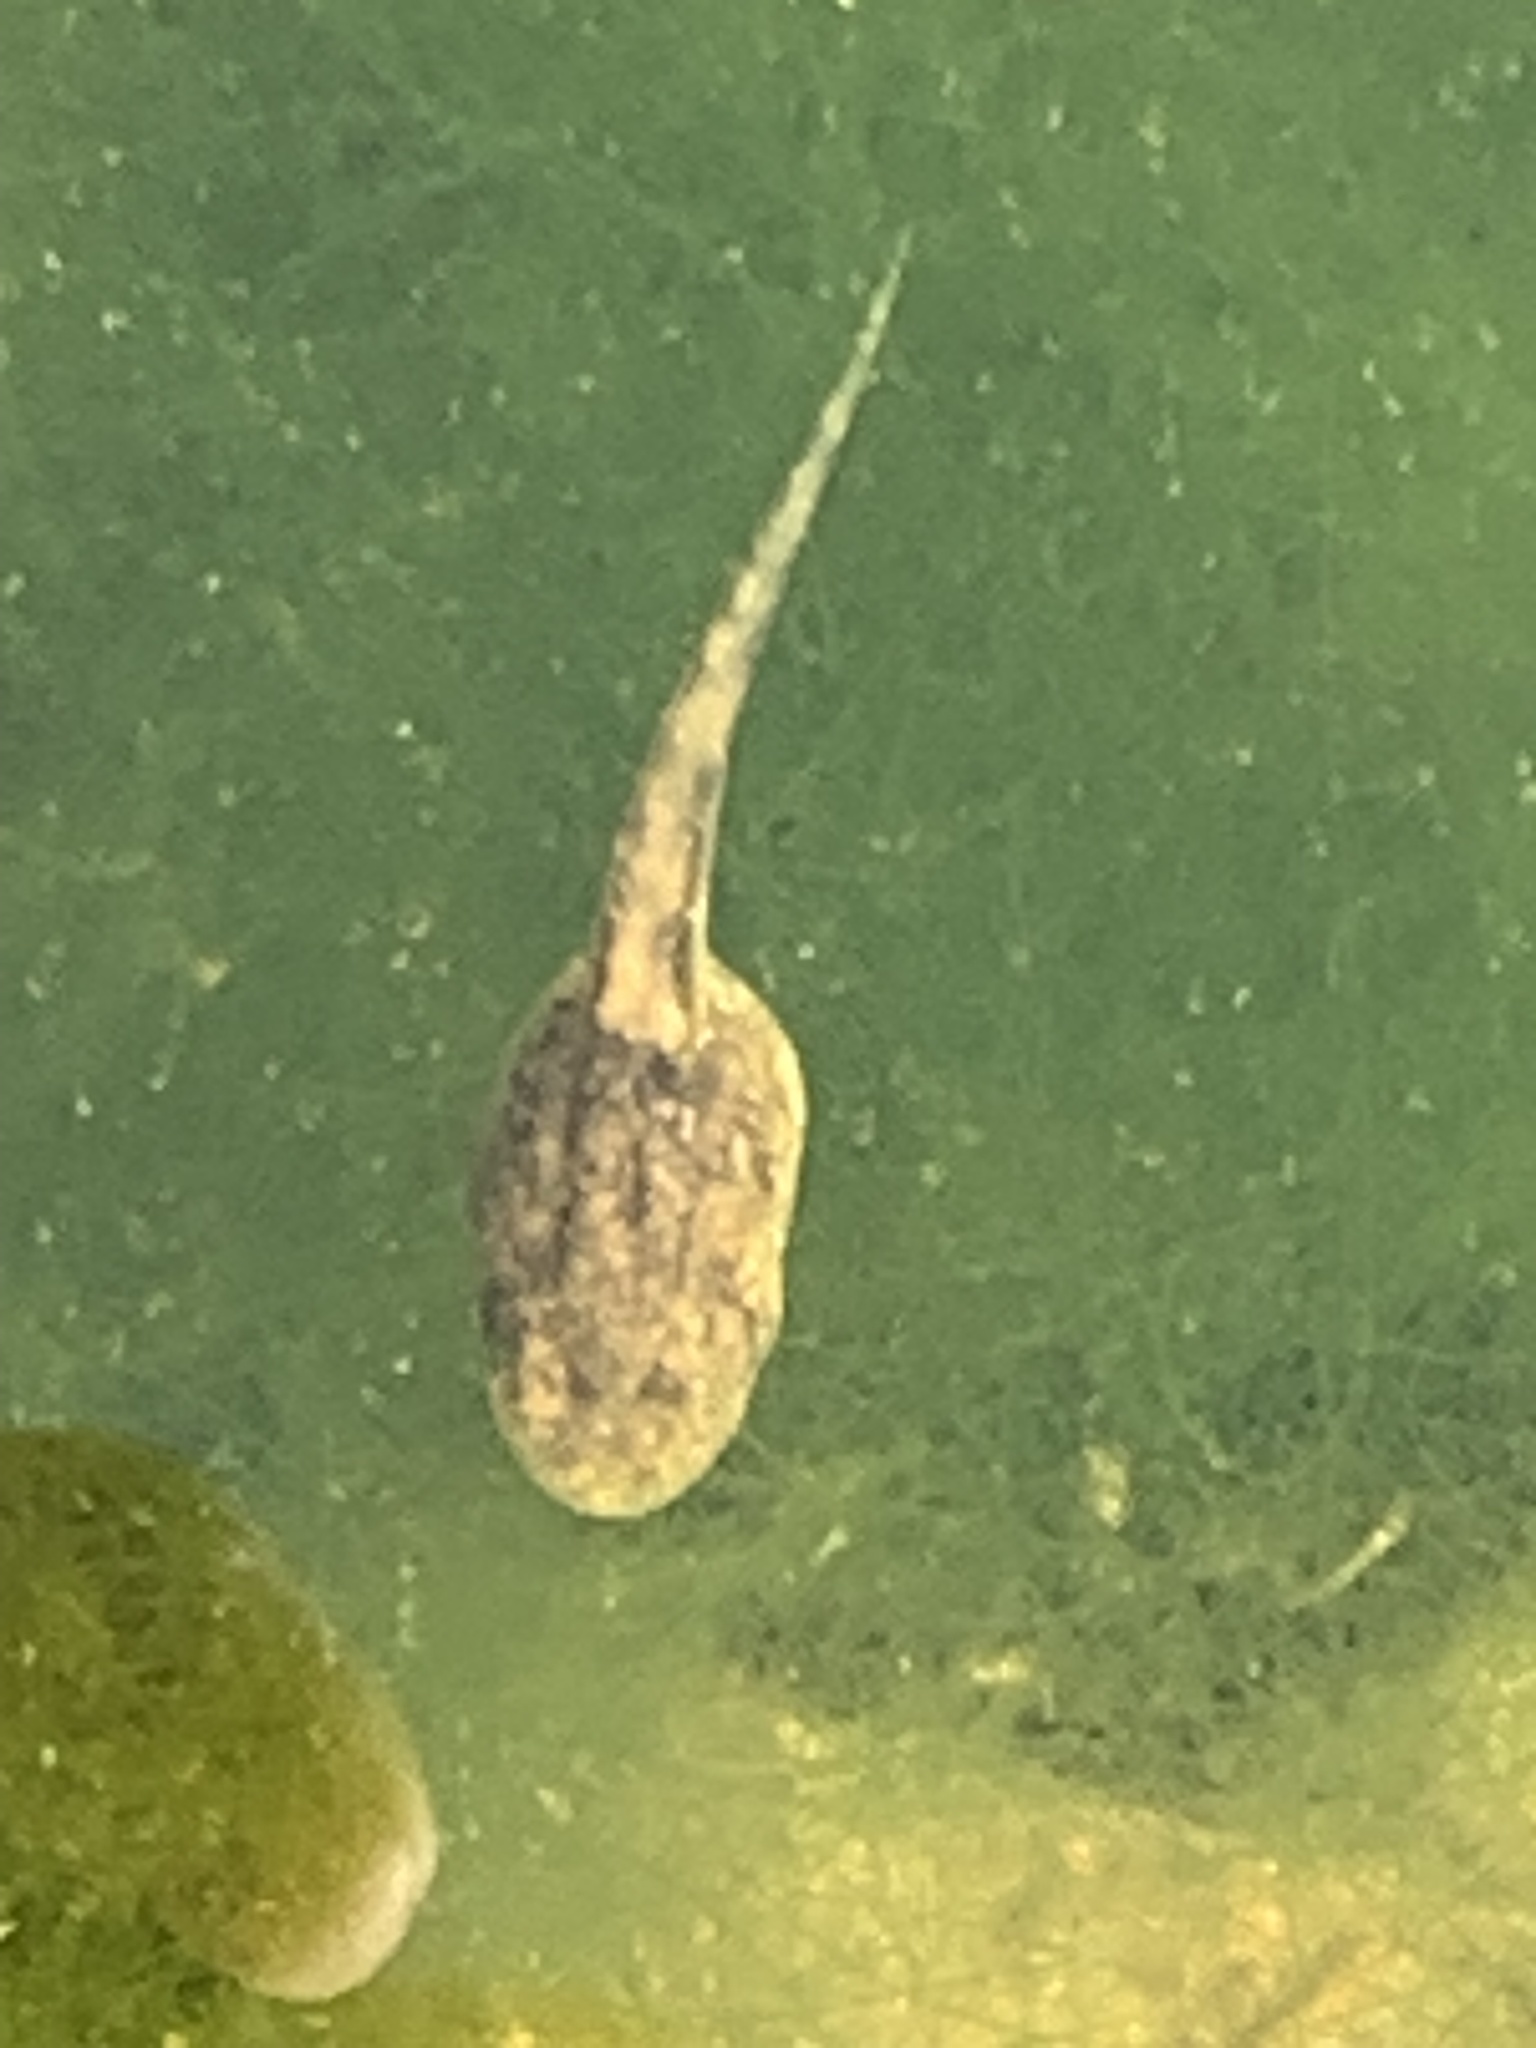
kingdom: Animalia
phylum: Chordata
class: Amphibia
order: Anura
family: Alytidae
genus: Alytes
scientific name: Alytes obstetricans
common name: Midwife toad
